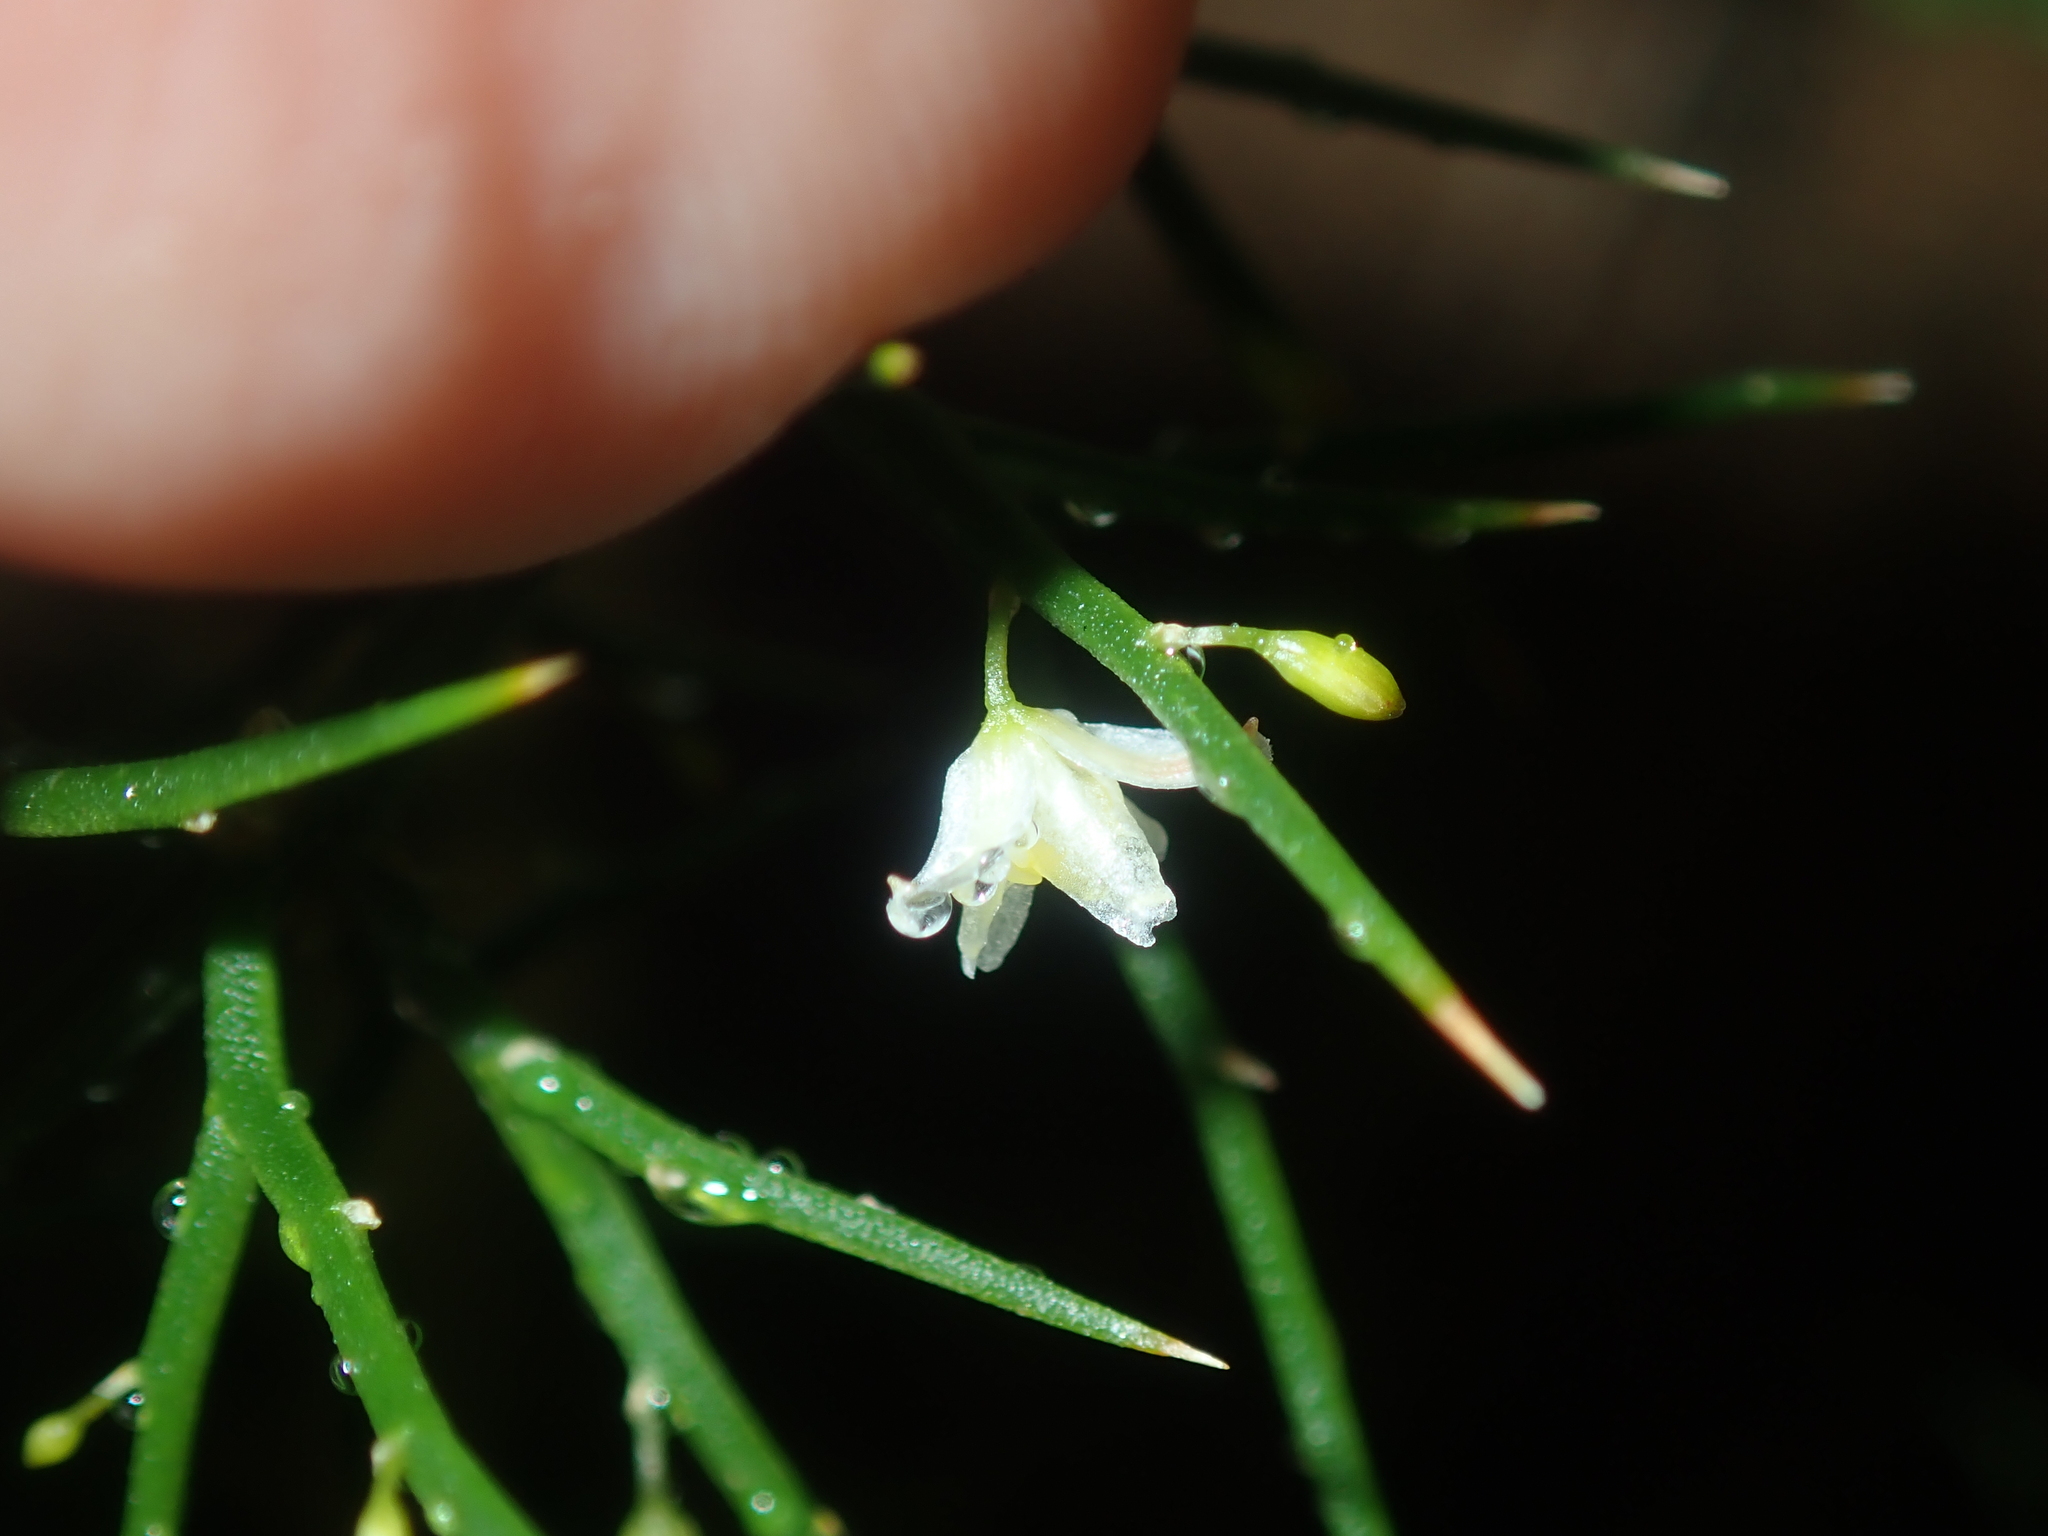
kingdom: Plantae
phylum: Tracheophyta
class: Liliopsida
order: Asparagales
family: Asphodelaceae
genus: Corynotheca
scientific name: Corynotheca acanthoclada
